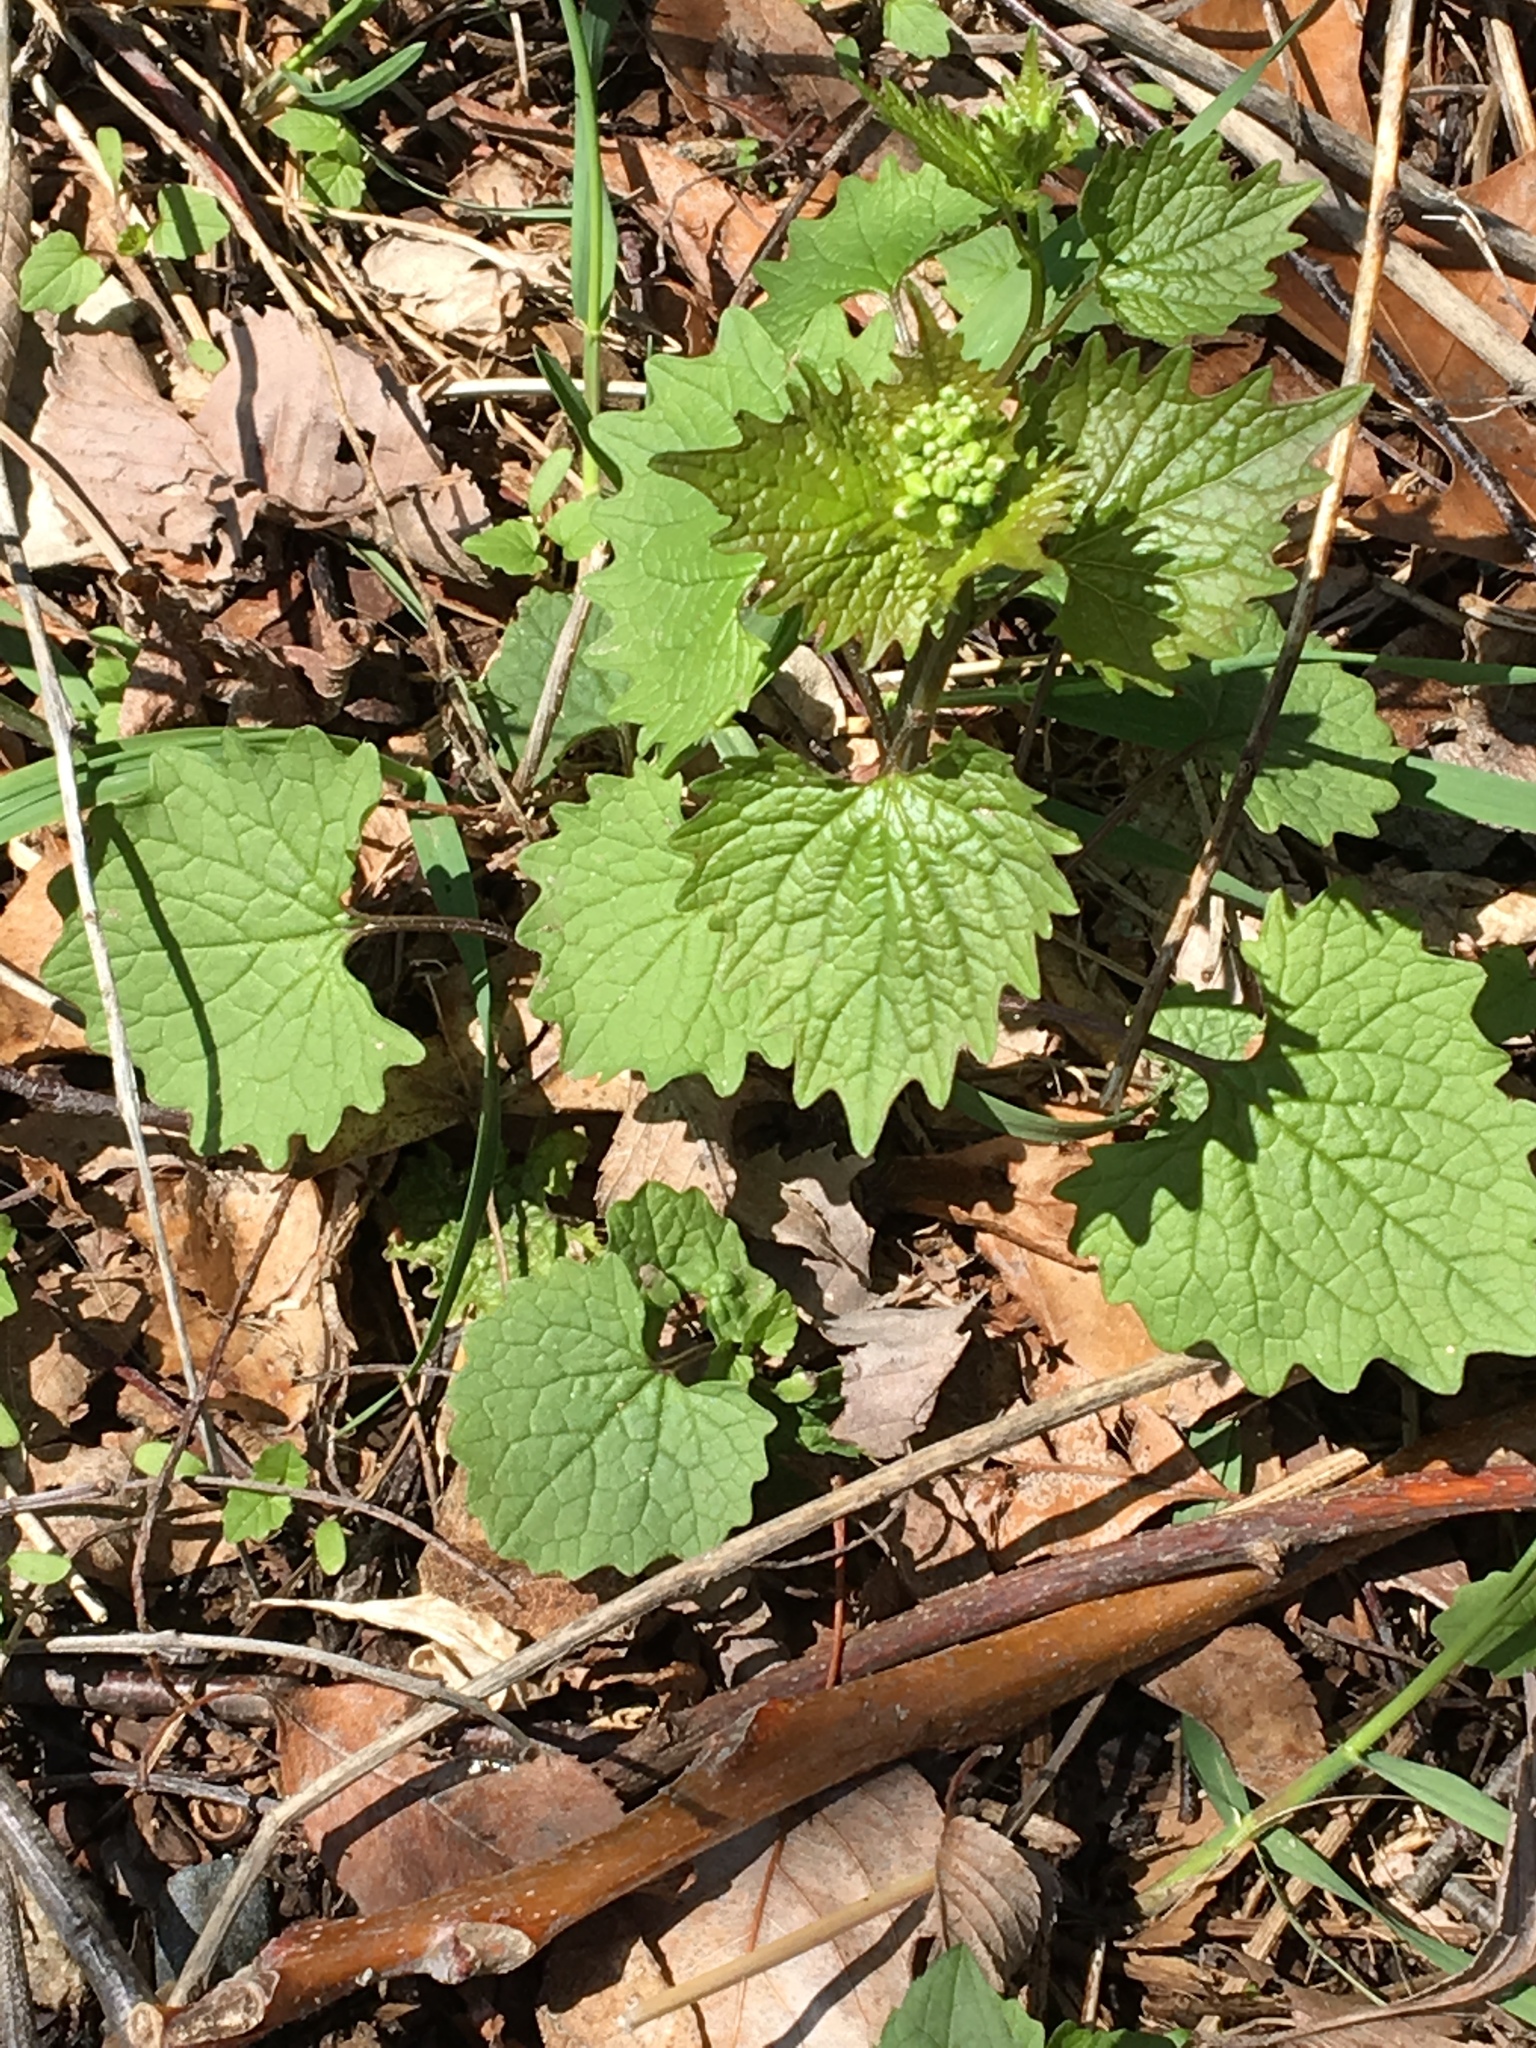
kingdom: Plantae
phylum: Tracheophyta
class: Magnoliopsida
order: Brassicales
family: Brassicaceae
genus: Alliaria
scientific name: Alliaria petiolata
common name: Garlic mustard
